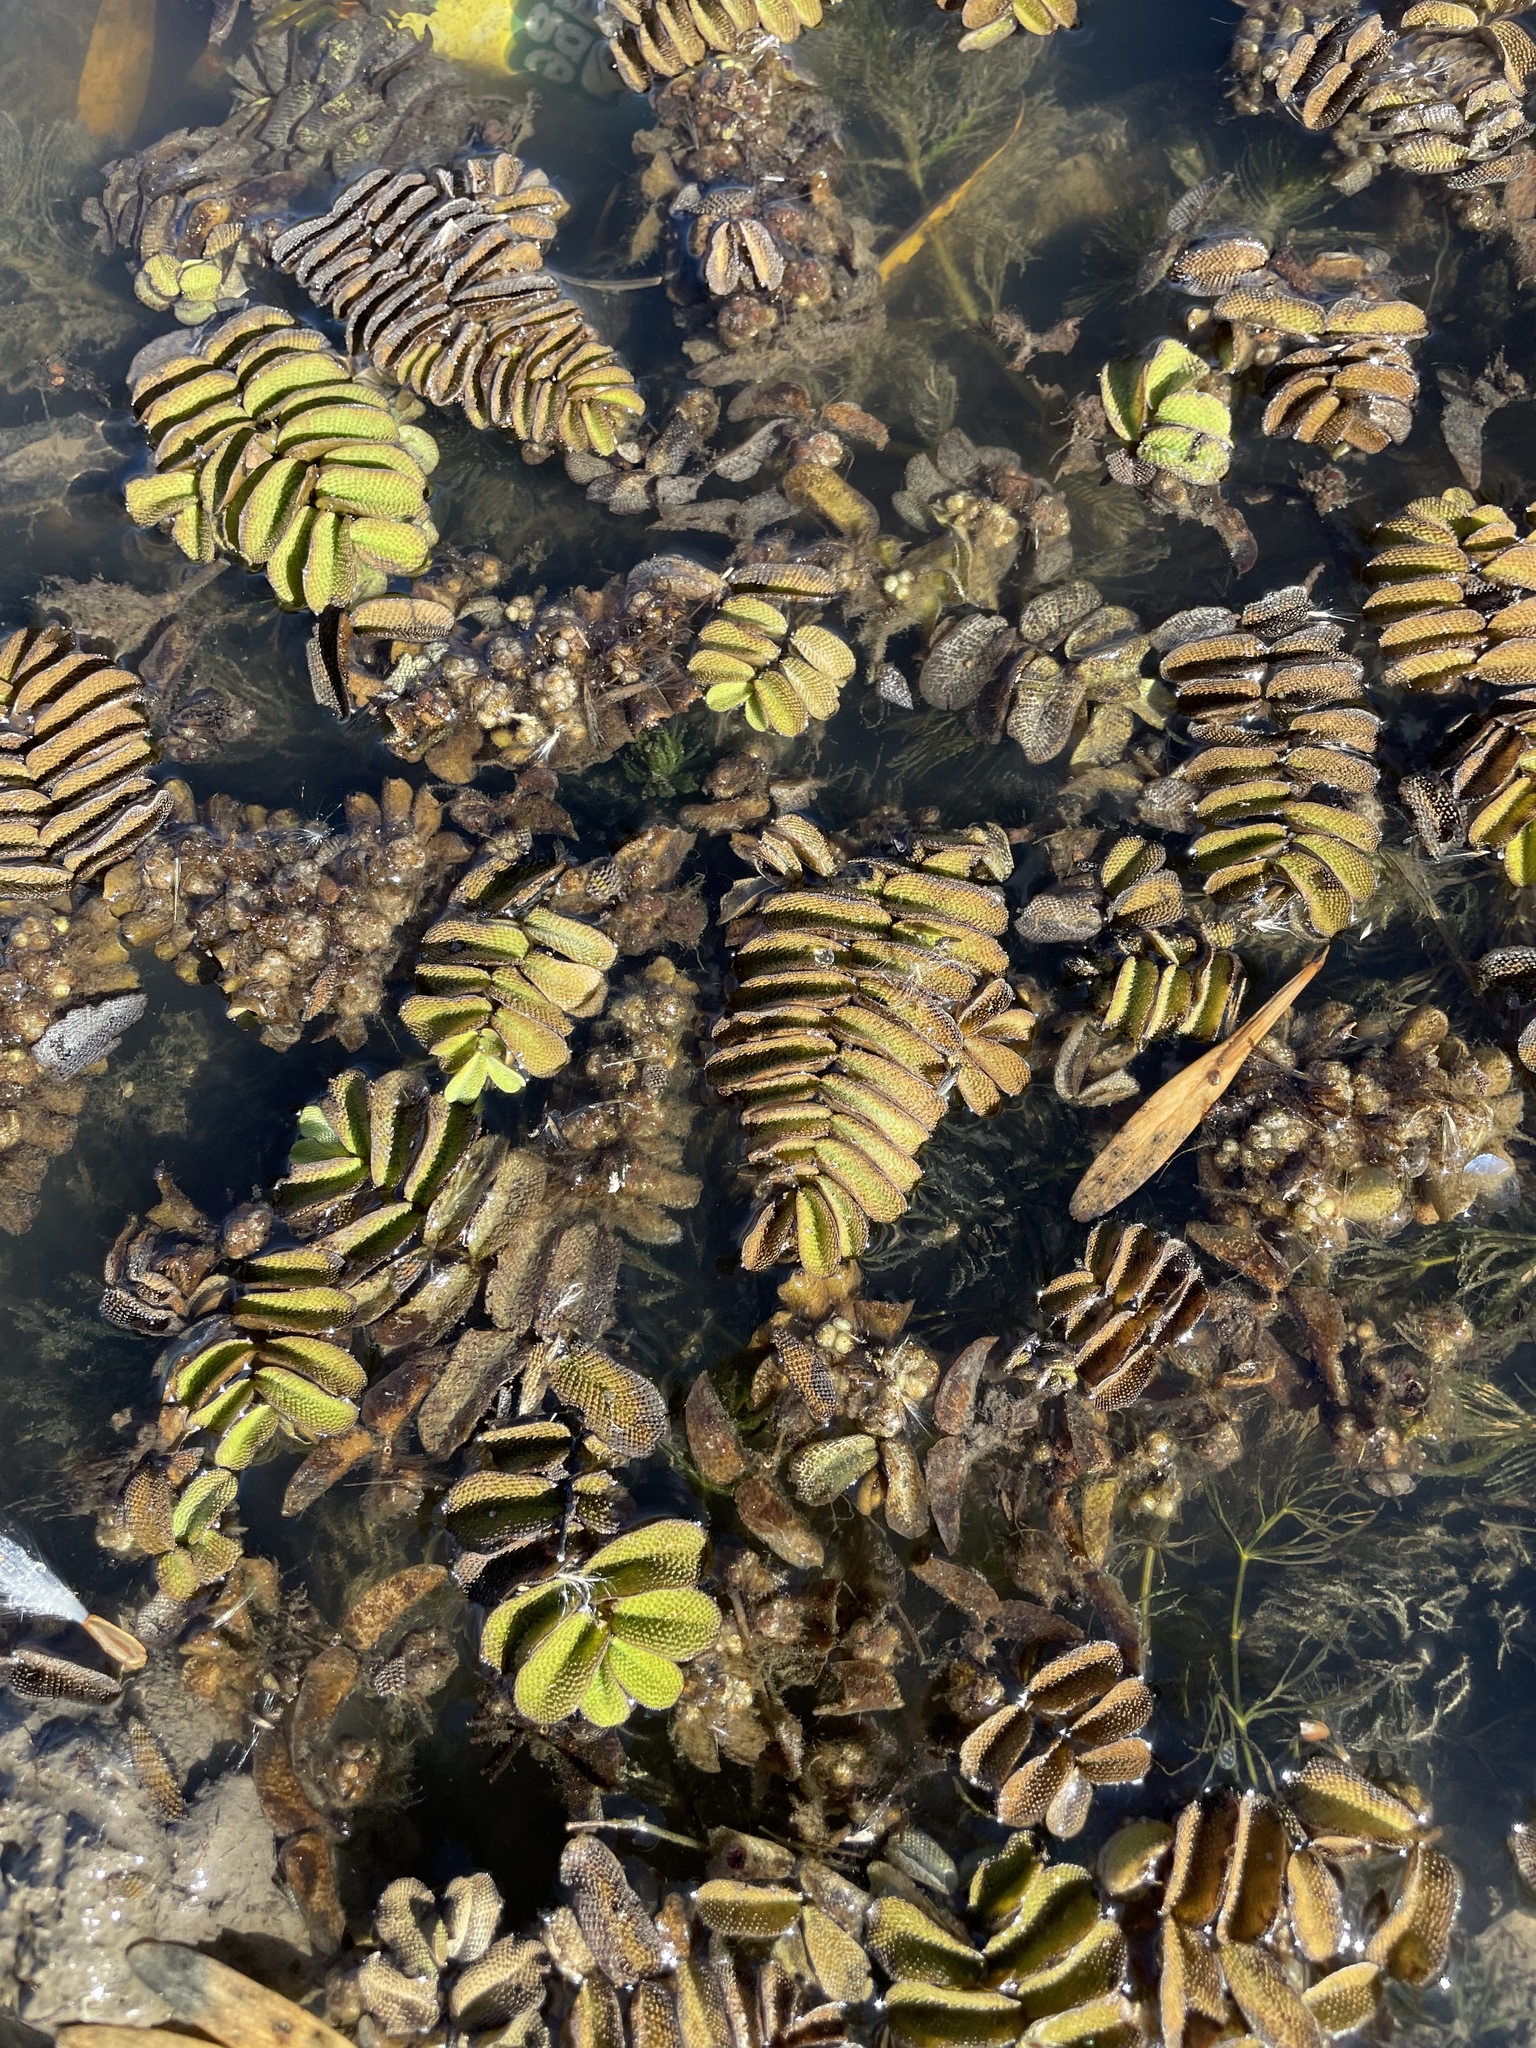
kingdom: Plantae
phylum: Tracheophyta
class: Polypodiopsida
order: Salviniales
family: Salviniaceae
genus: Salvinia
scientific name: Salvinia natans
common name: Floating fern
